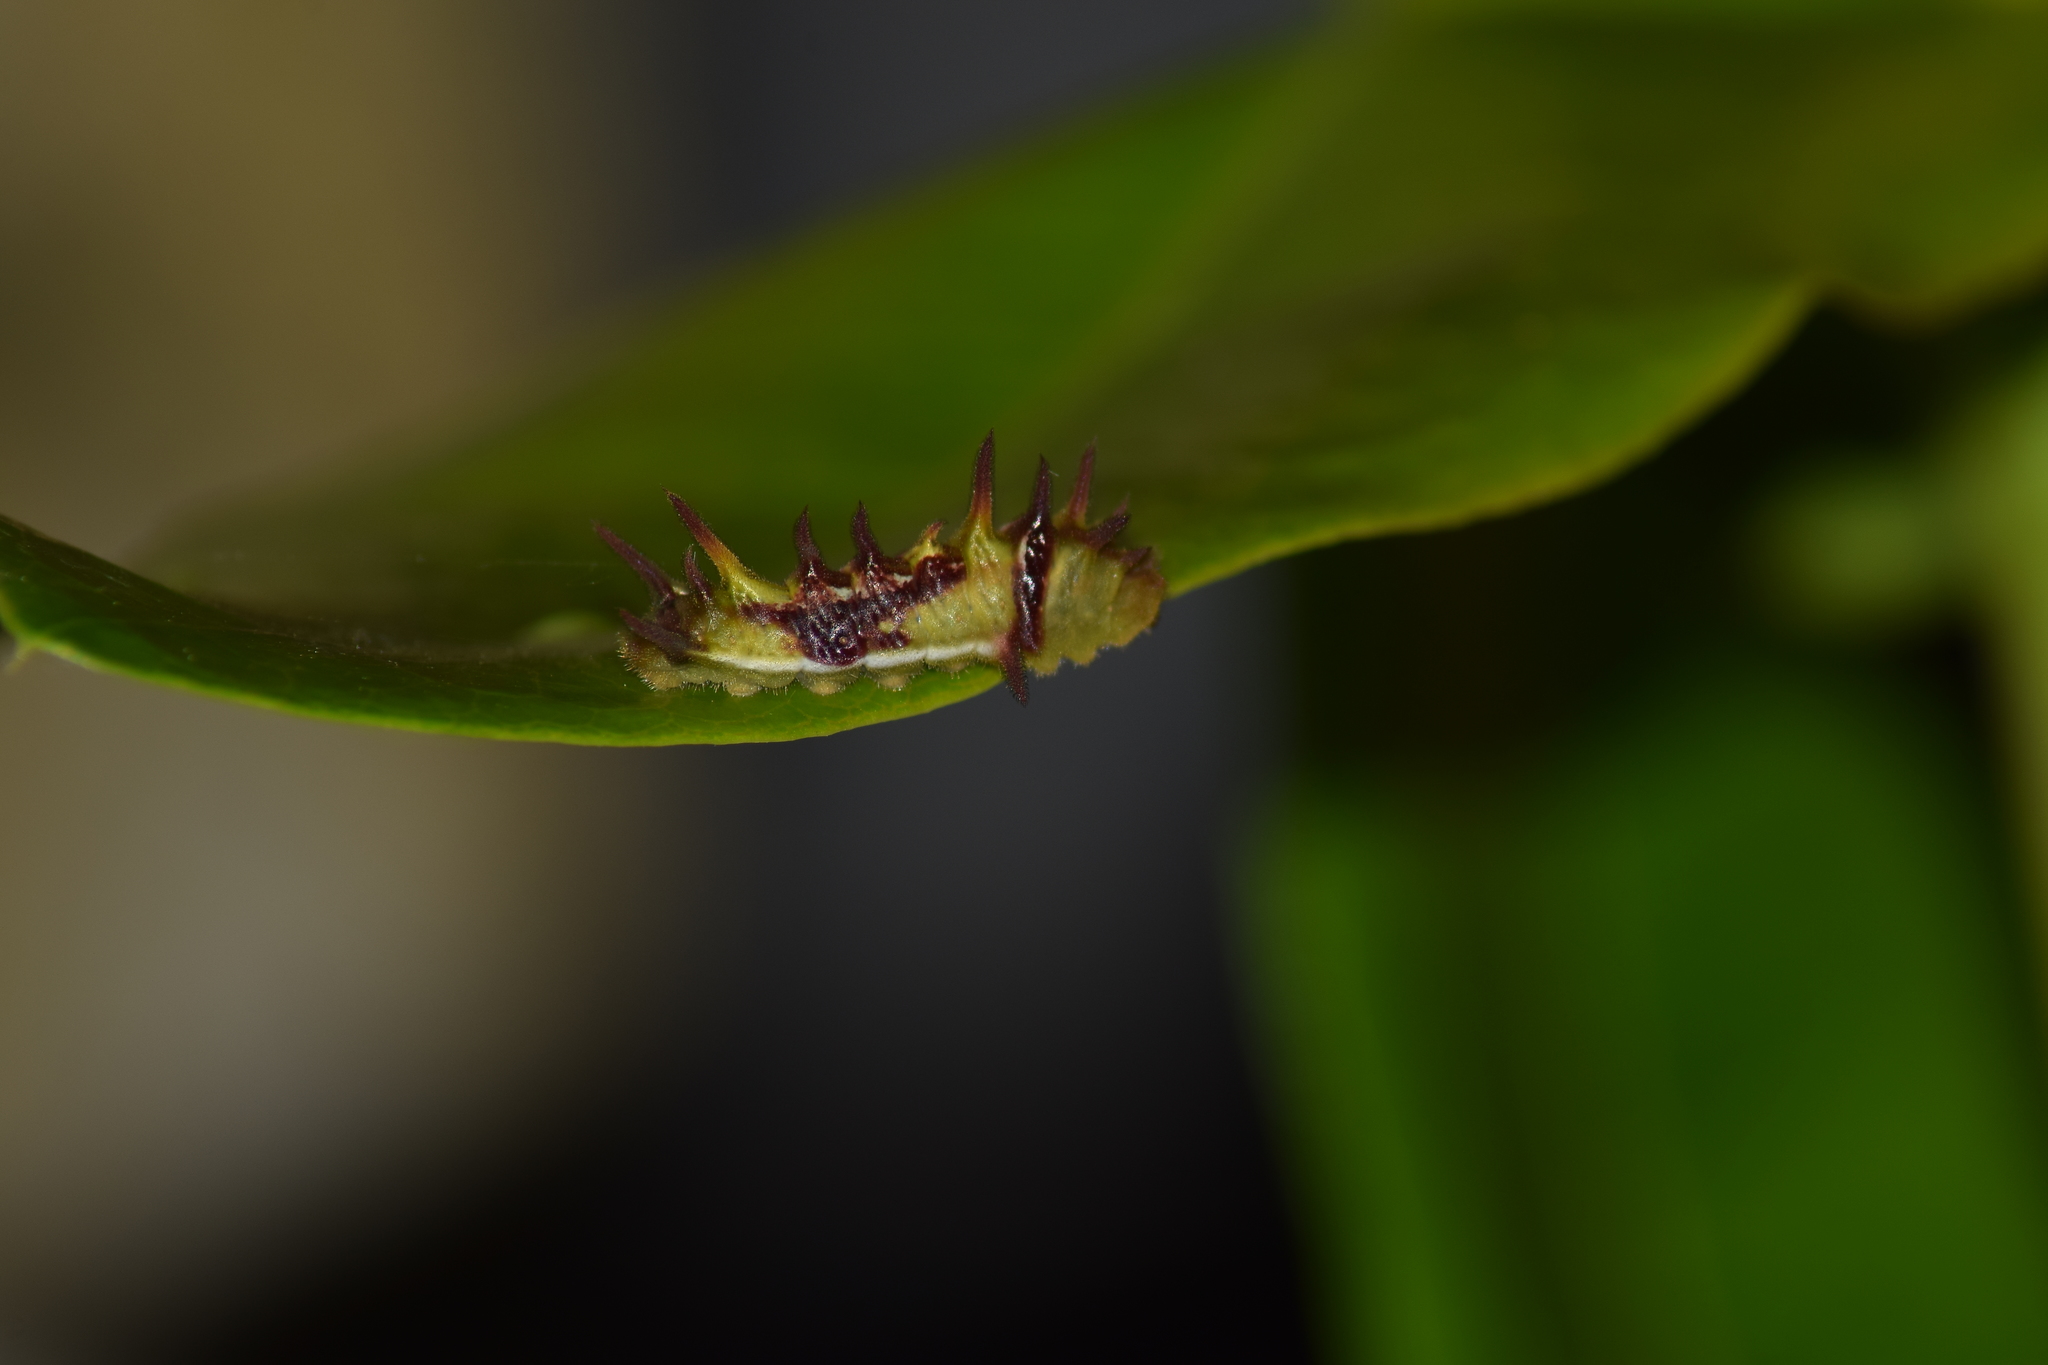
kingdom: Animalia
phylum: Arthropoda
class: Insecta
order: Lepidoptera
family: Lycaenidae
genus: Rathinda
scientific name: Rathinda amor
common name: Monkey puzzle
